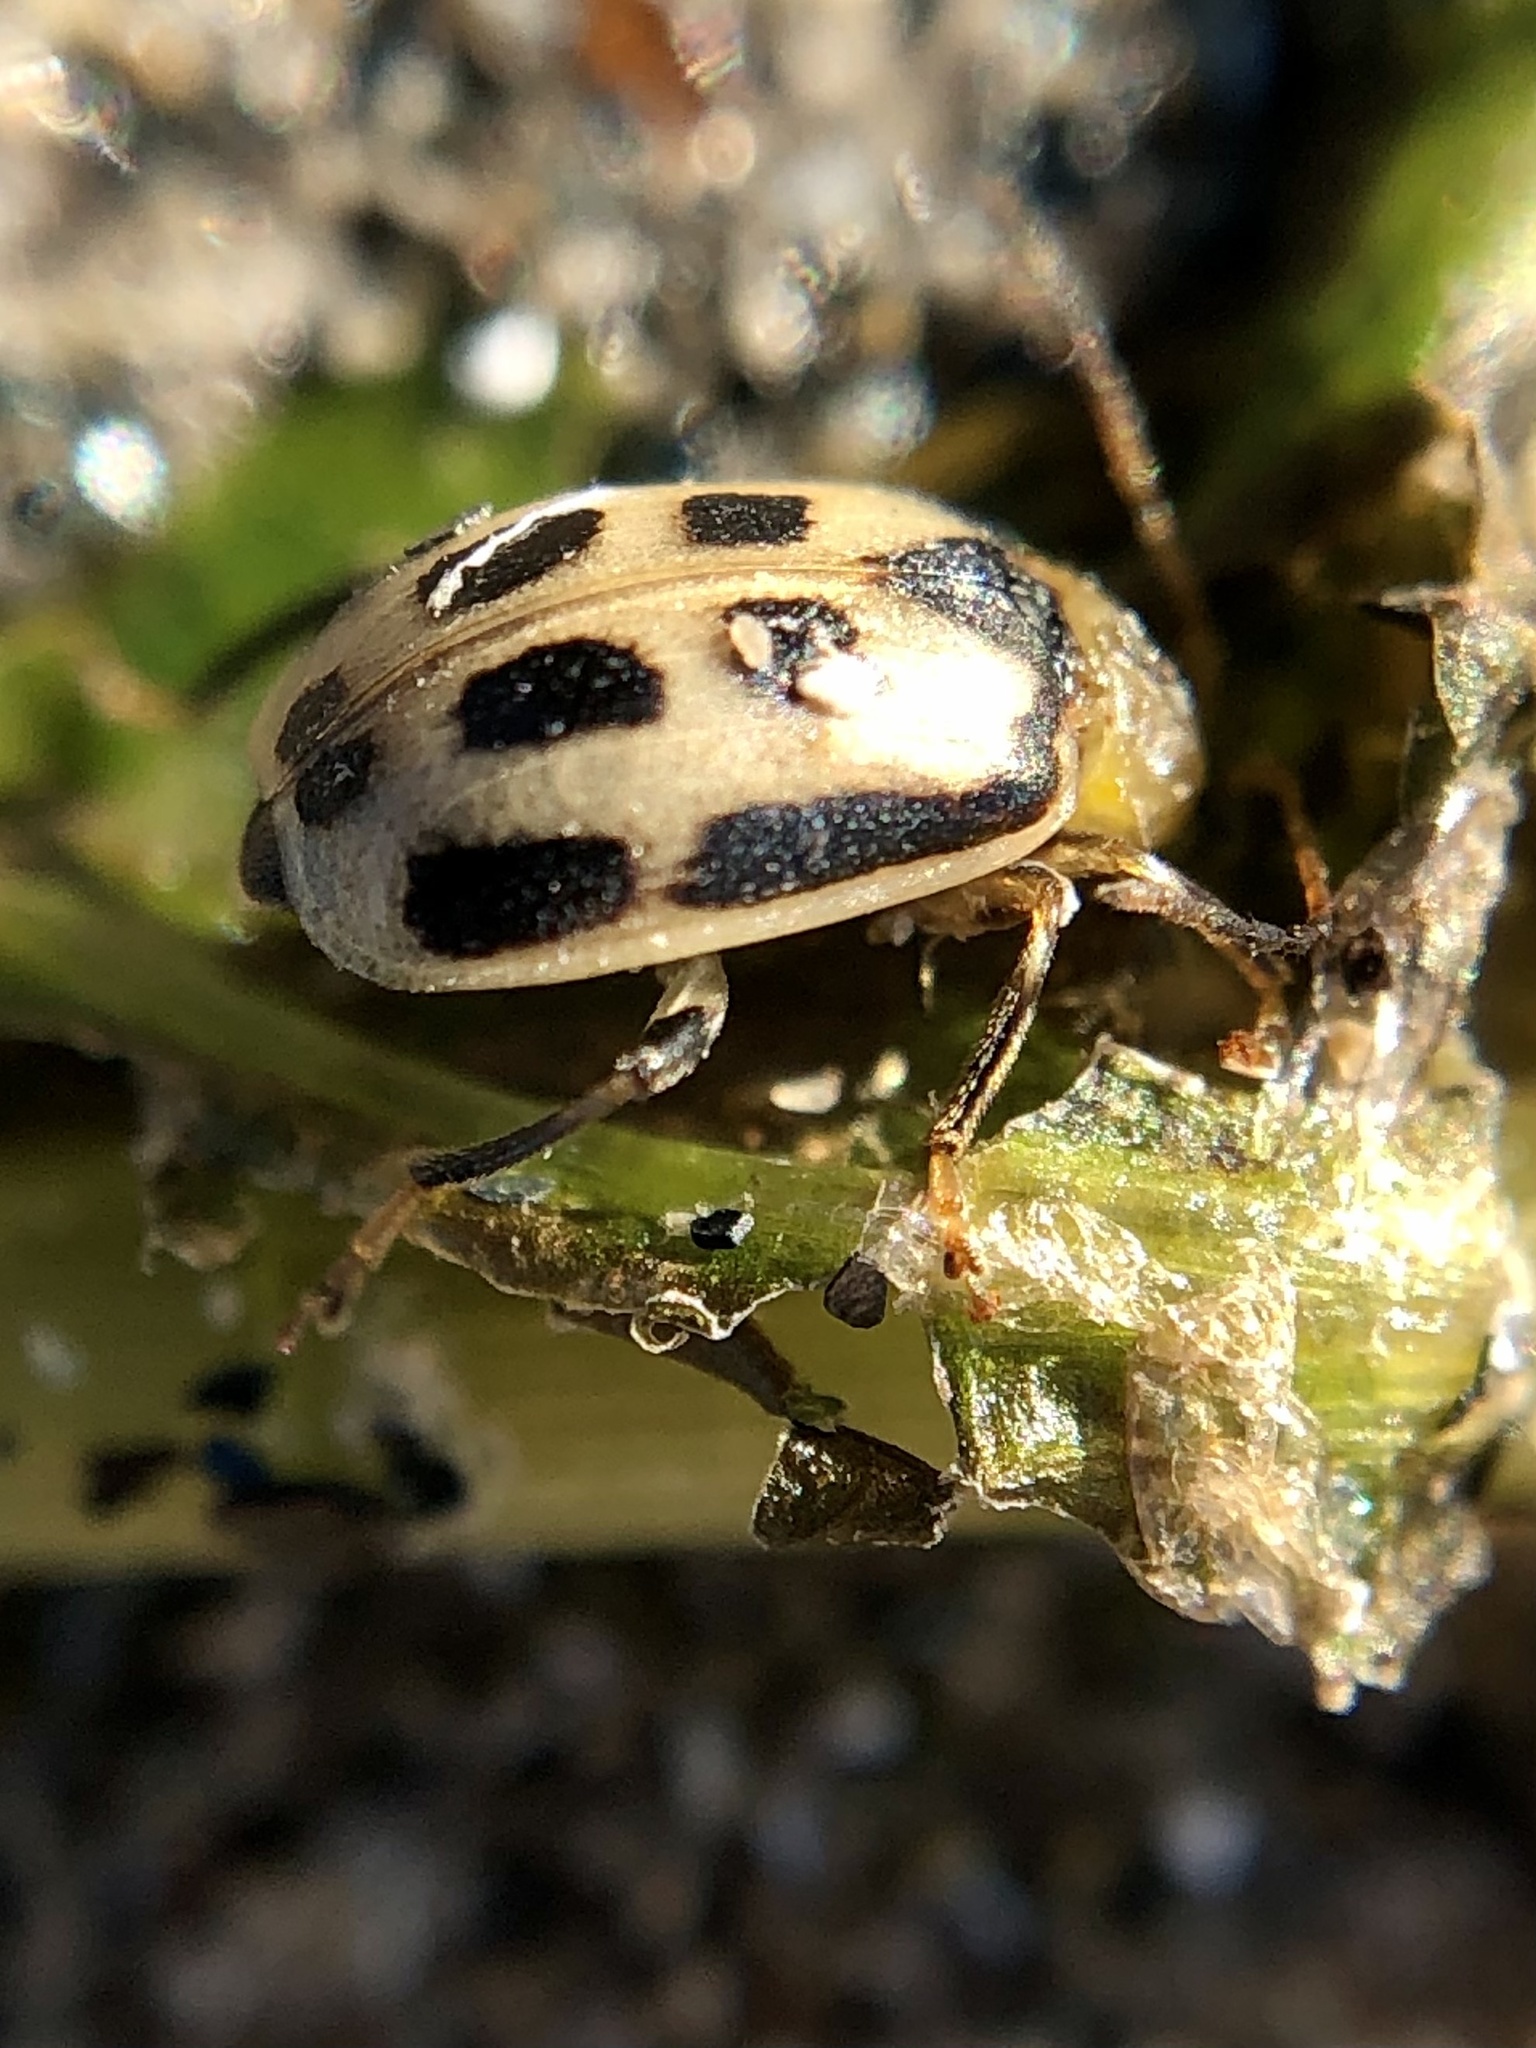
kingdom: Animalia
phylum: Arthropoda
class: Insecta
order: Coleoptera
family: Chrysomelidae
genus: Cerotoma
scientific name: Cerotoma trifurcata
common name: Bean leaf beetle
